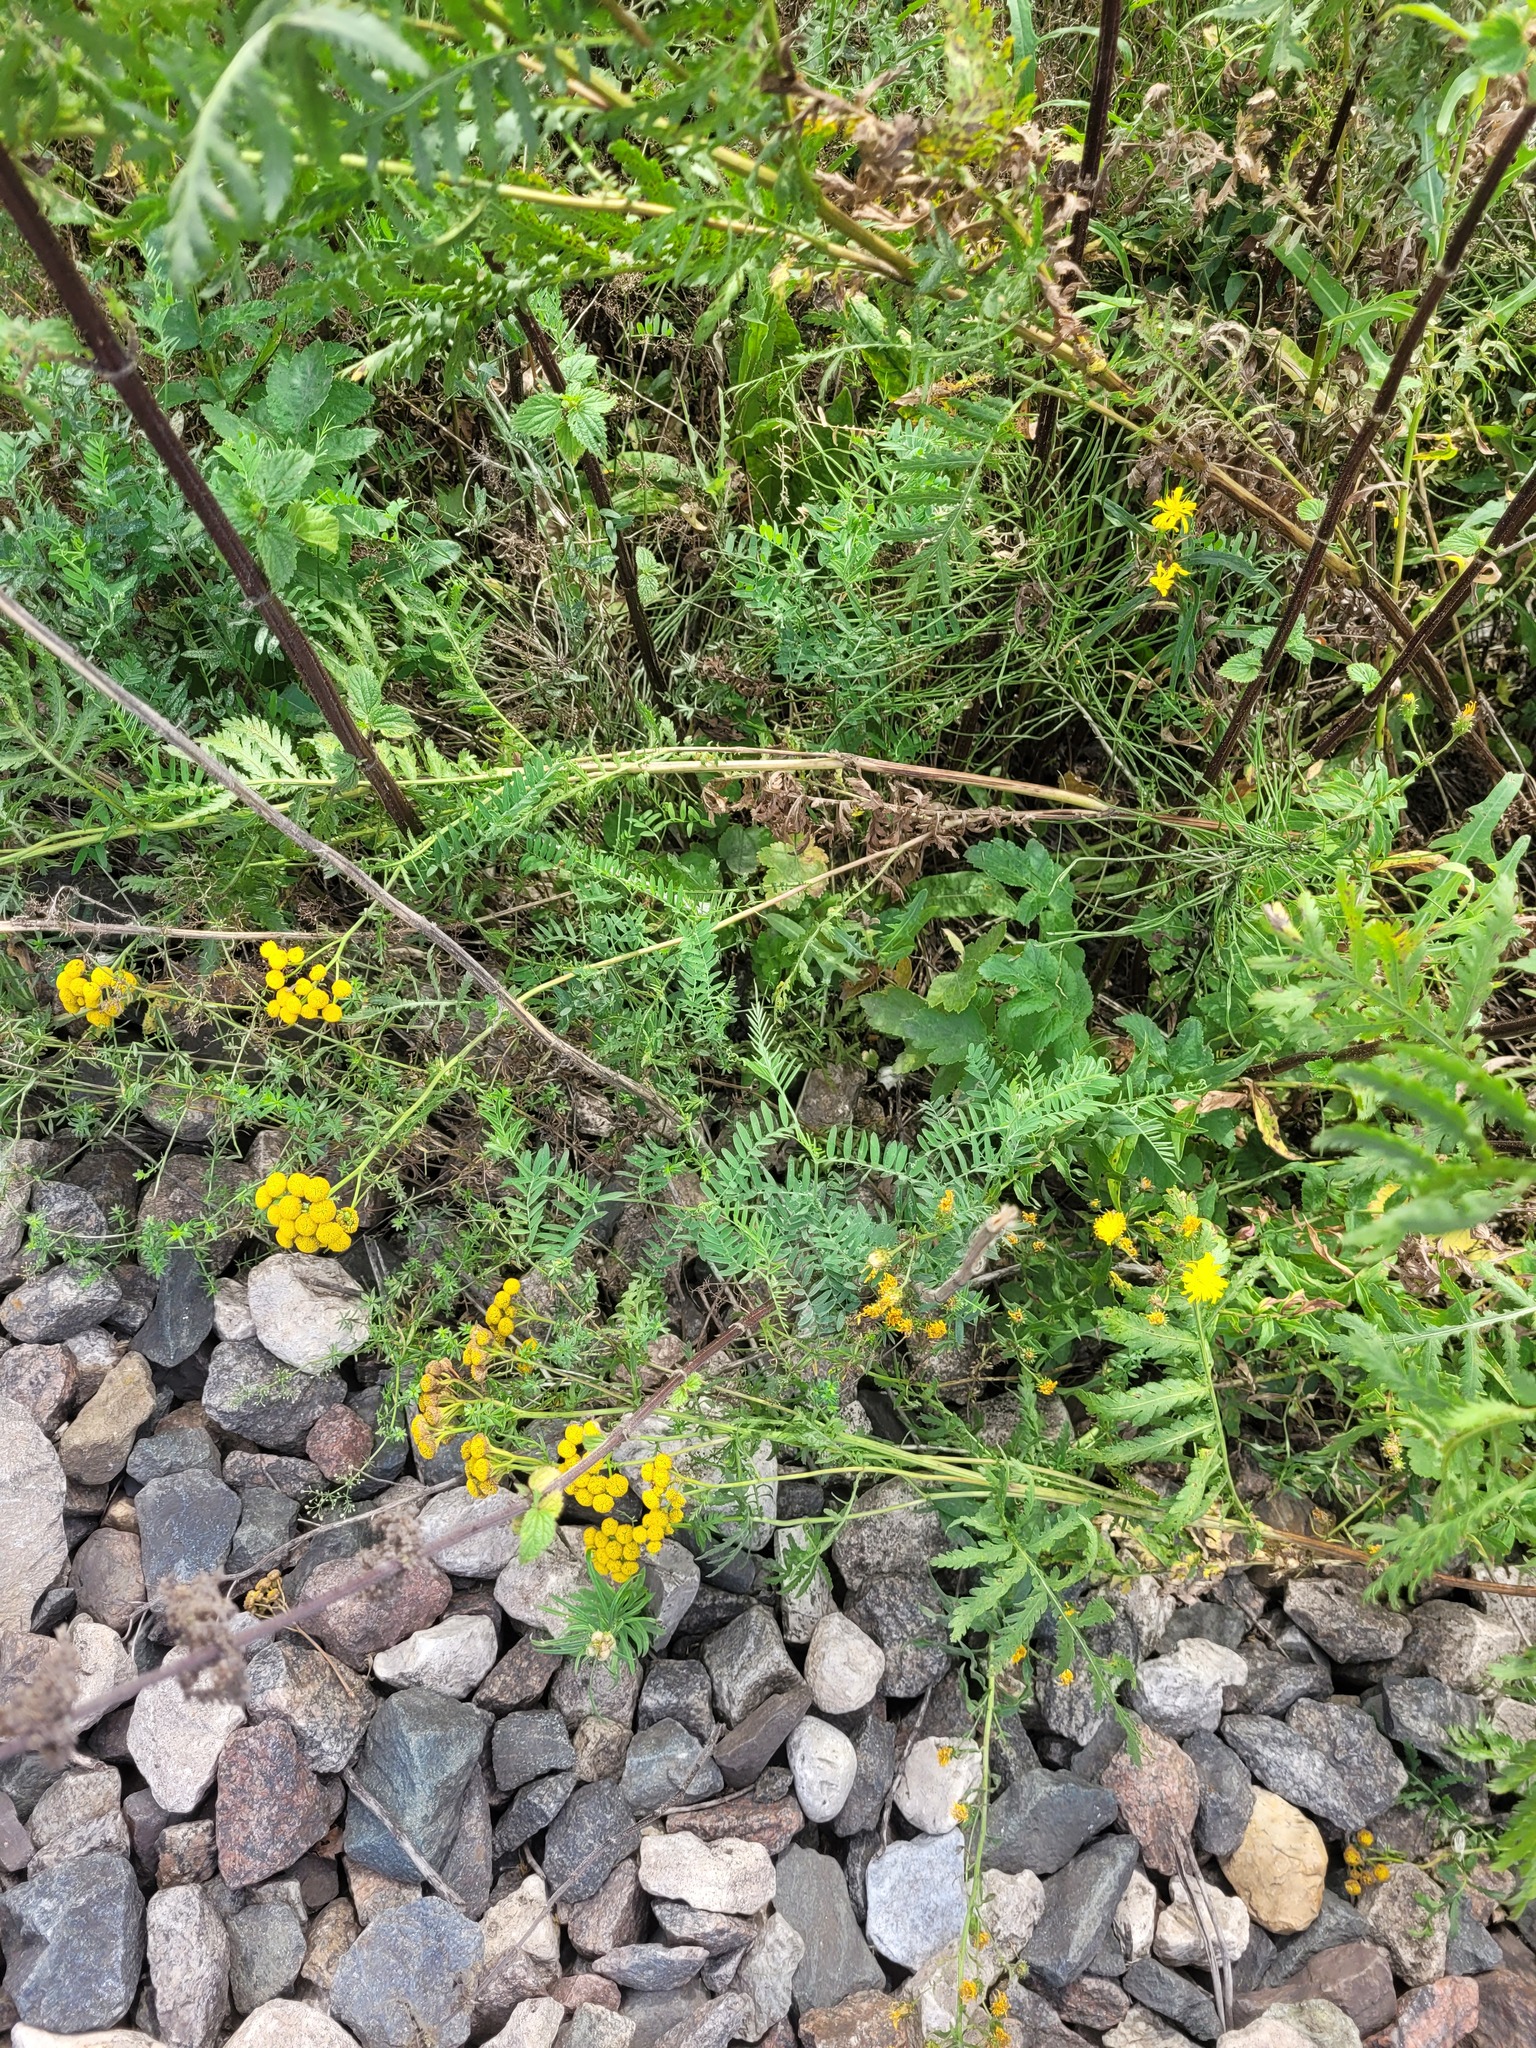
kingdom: Plantae
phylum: Tracheophyta
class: Magnoliopsida
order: Fabales
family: Fabaceae
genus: Vicia
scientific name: Vicia cracca
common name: Bird vetch
